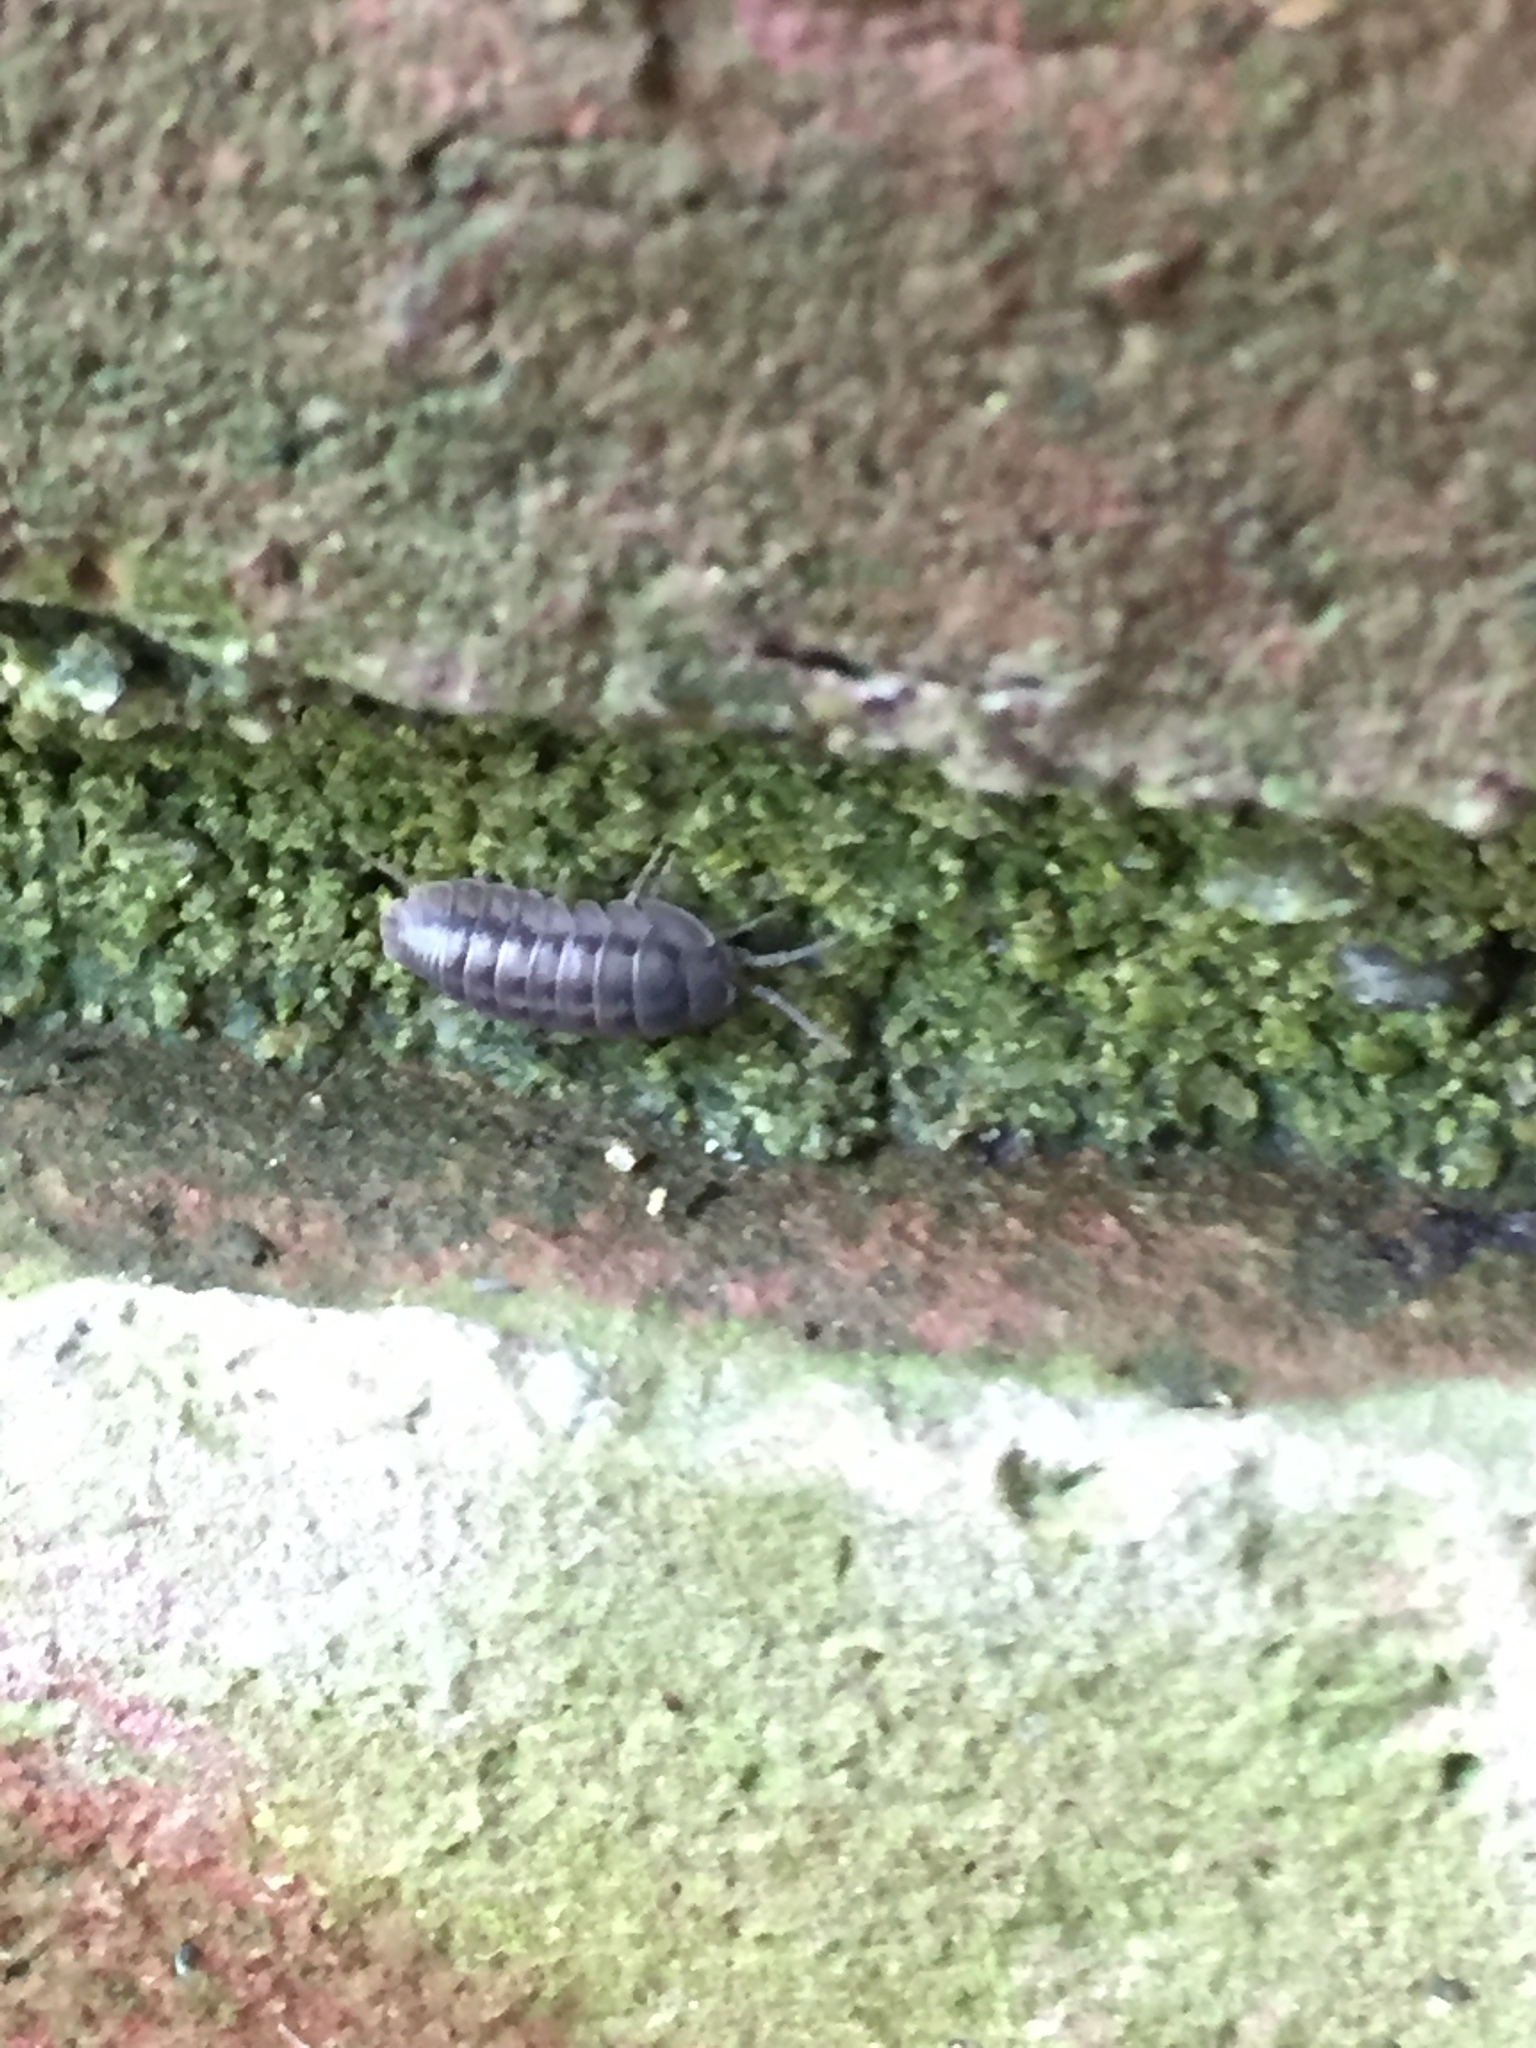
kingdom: Animalia
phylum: Arthropoda
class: Malacostraca
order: Isopoda
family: Armadillidiidae
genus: Armadillidium
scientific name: Armadillidium nasatum
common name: Isopod
